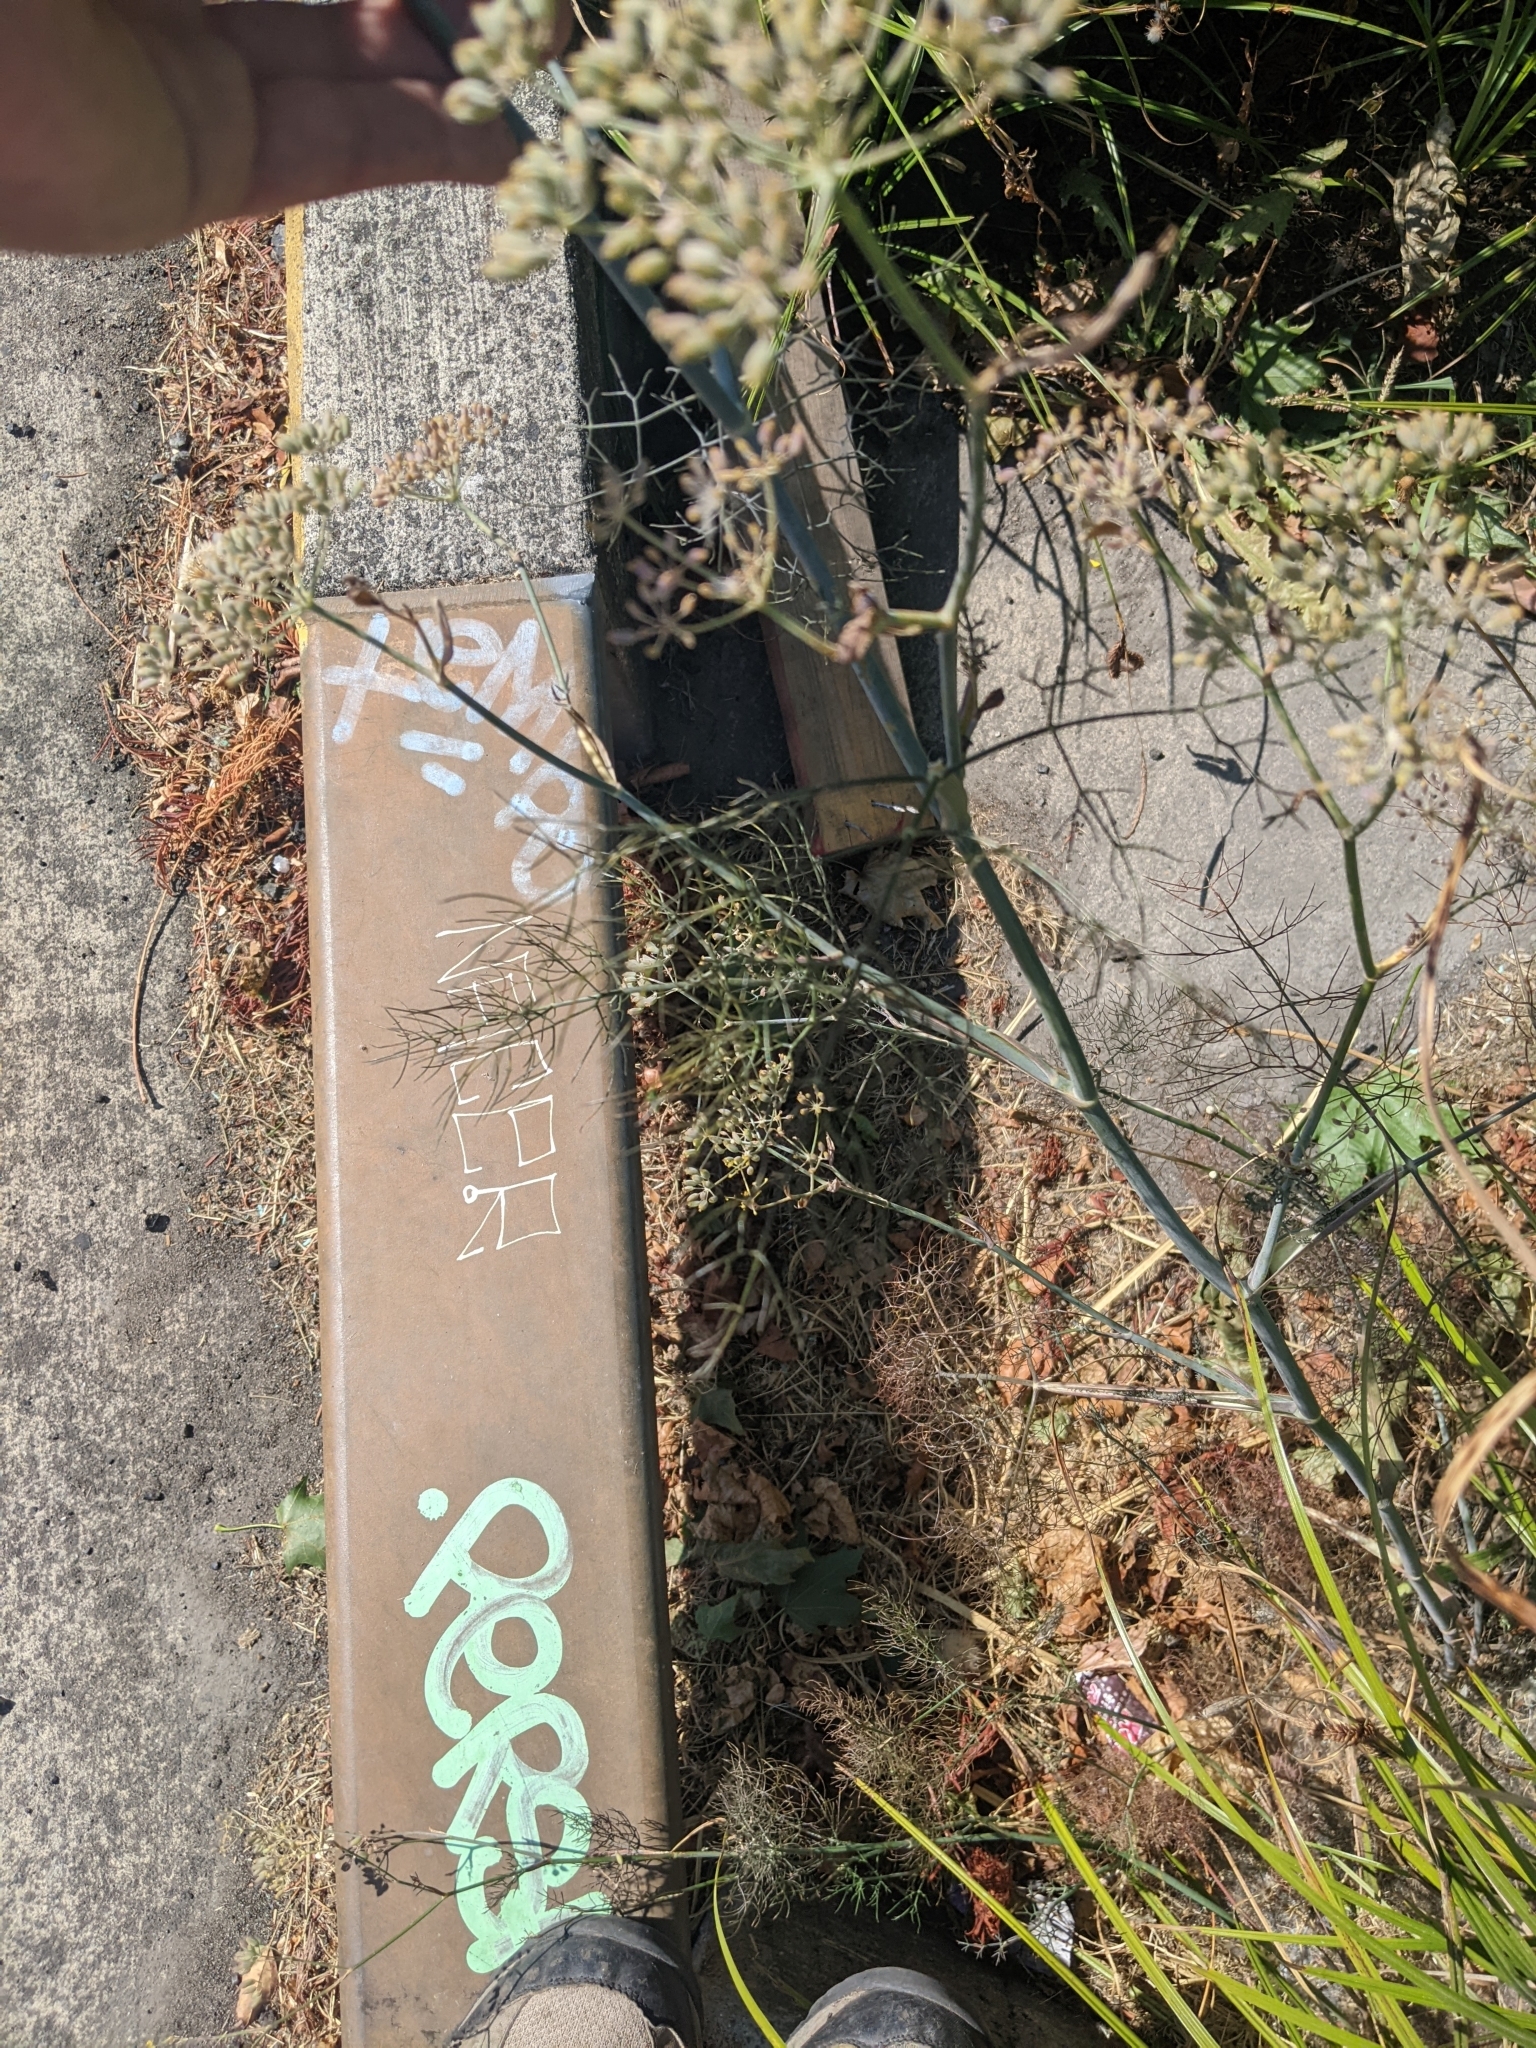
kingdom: Plantae
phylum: Tracheophyta
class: Magnoliopsida
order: Apiales
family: Apiaceae
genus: Foeniculum
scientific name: Foeniculum vulgare
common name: Fennel
